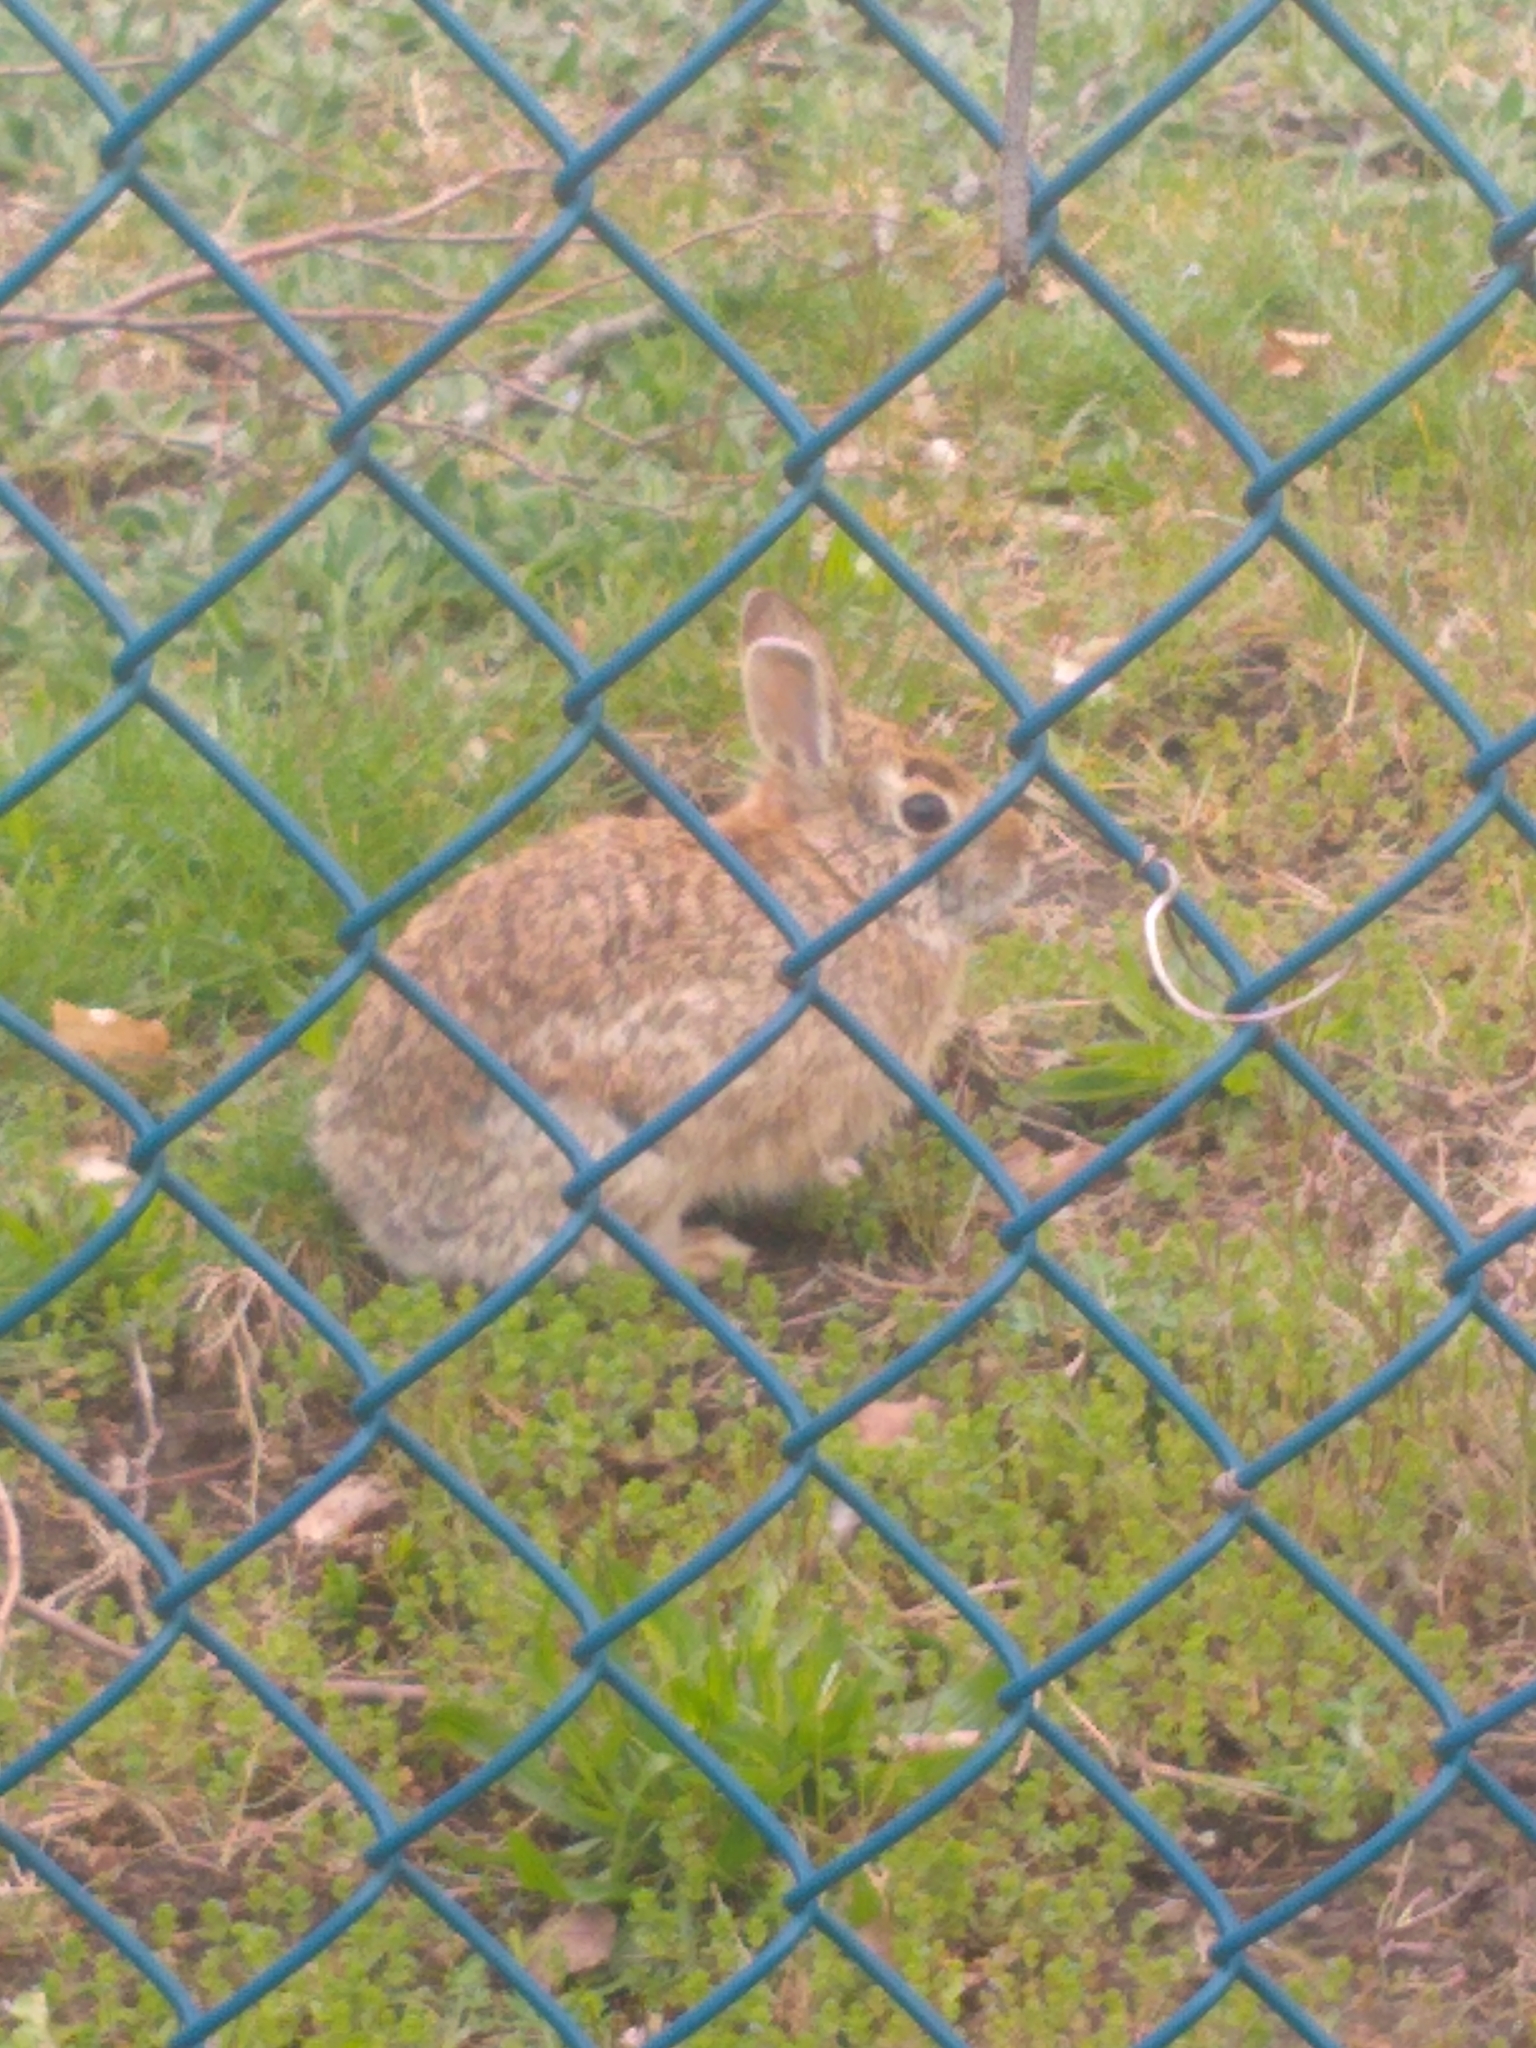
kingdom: Animalia
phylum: Chordata
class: Mammalia
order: Lagomorpha
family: Leporidae
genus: Sylvilagus
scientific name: Sylvilagus floridanus
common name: Eastern cottontail
